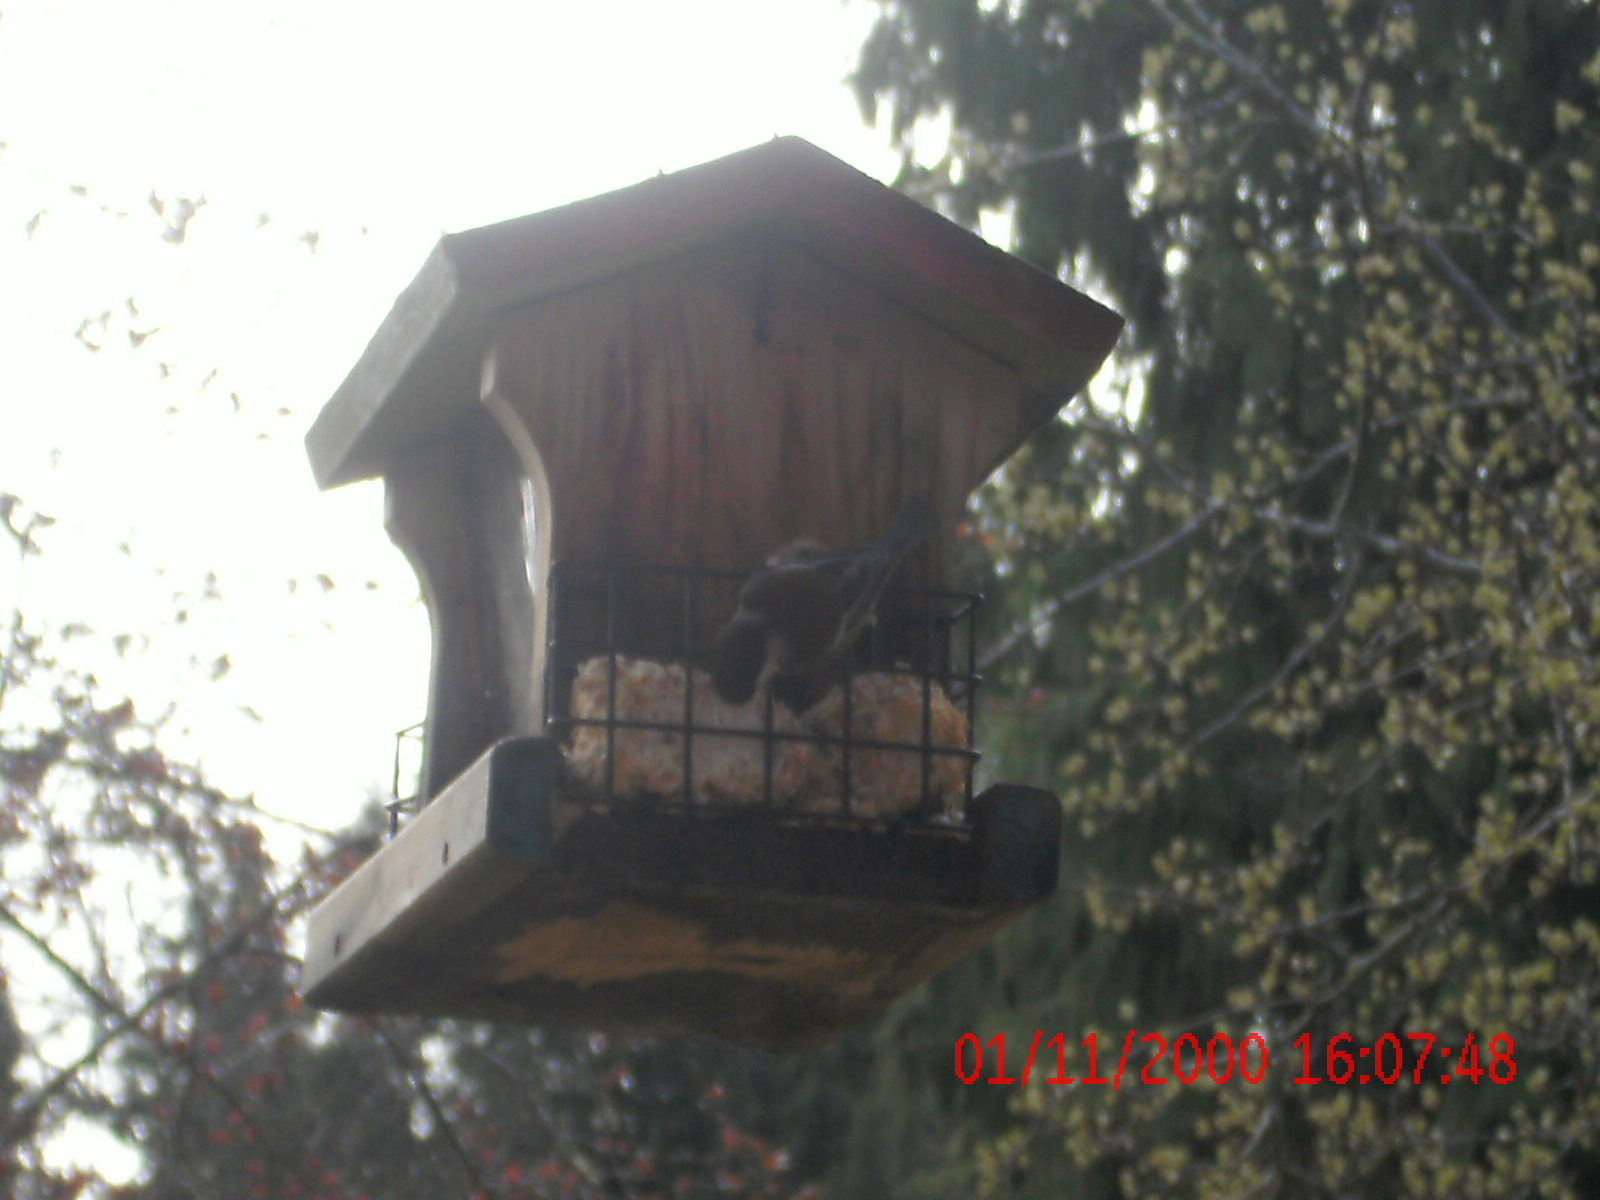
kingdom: Animalia
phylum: Chordata
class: Aves
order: Passeriformes
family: Paridae
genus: Poecile
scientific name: Poecile rufescens
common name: Chestnut-backed chickadee
